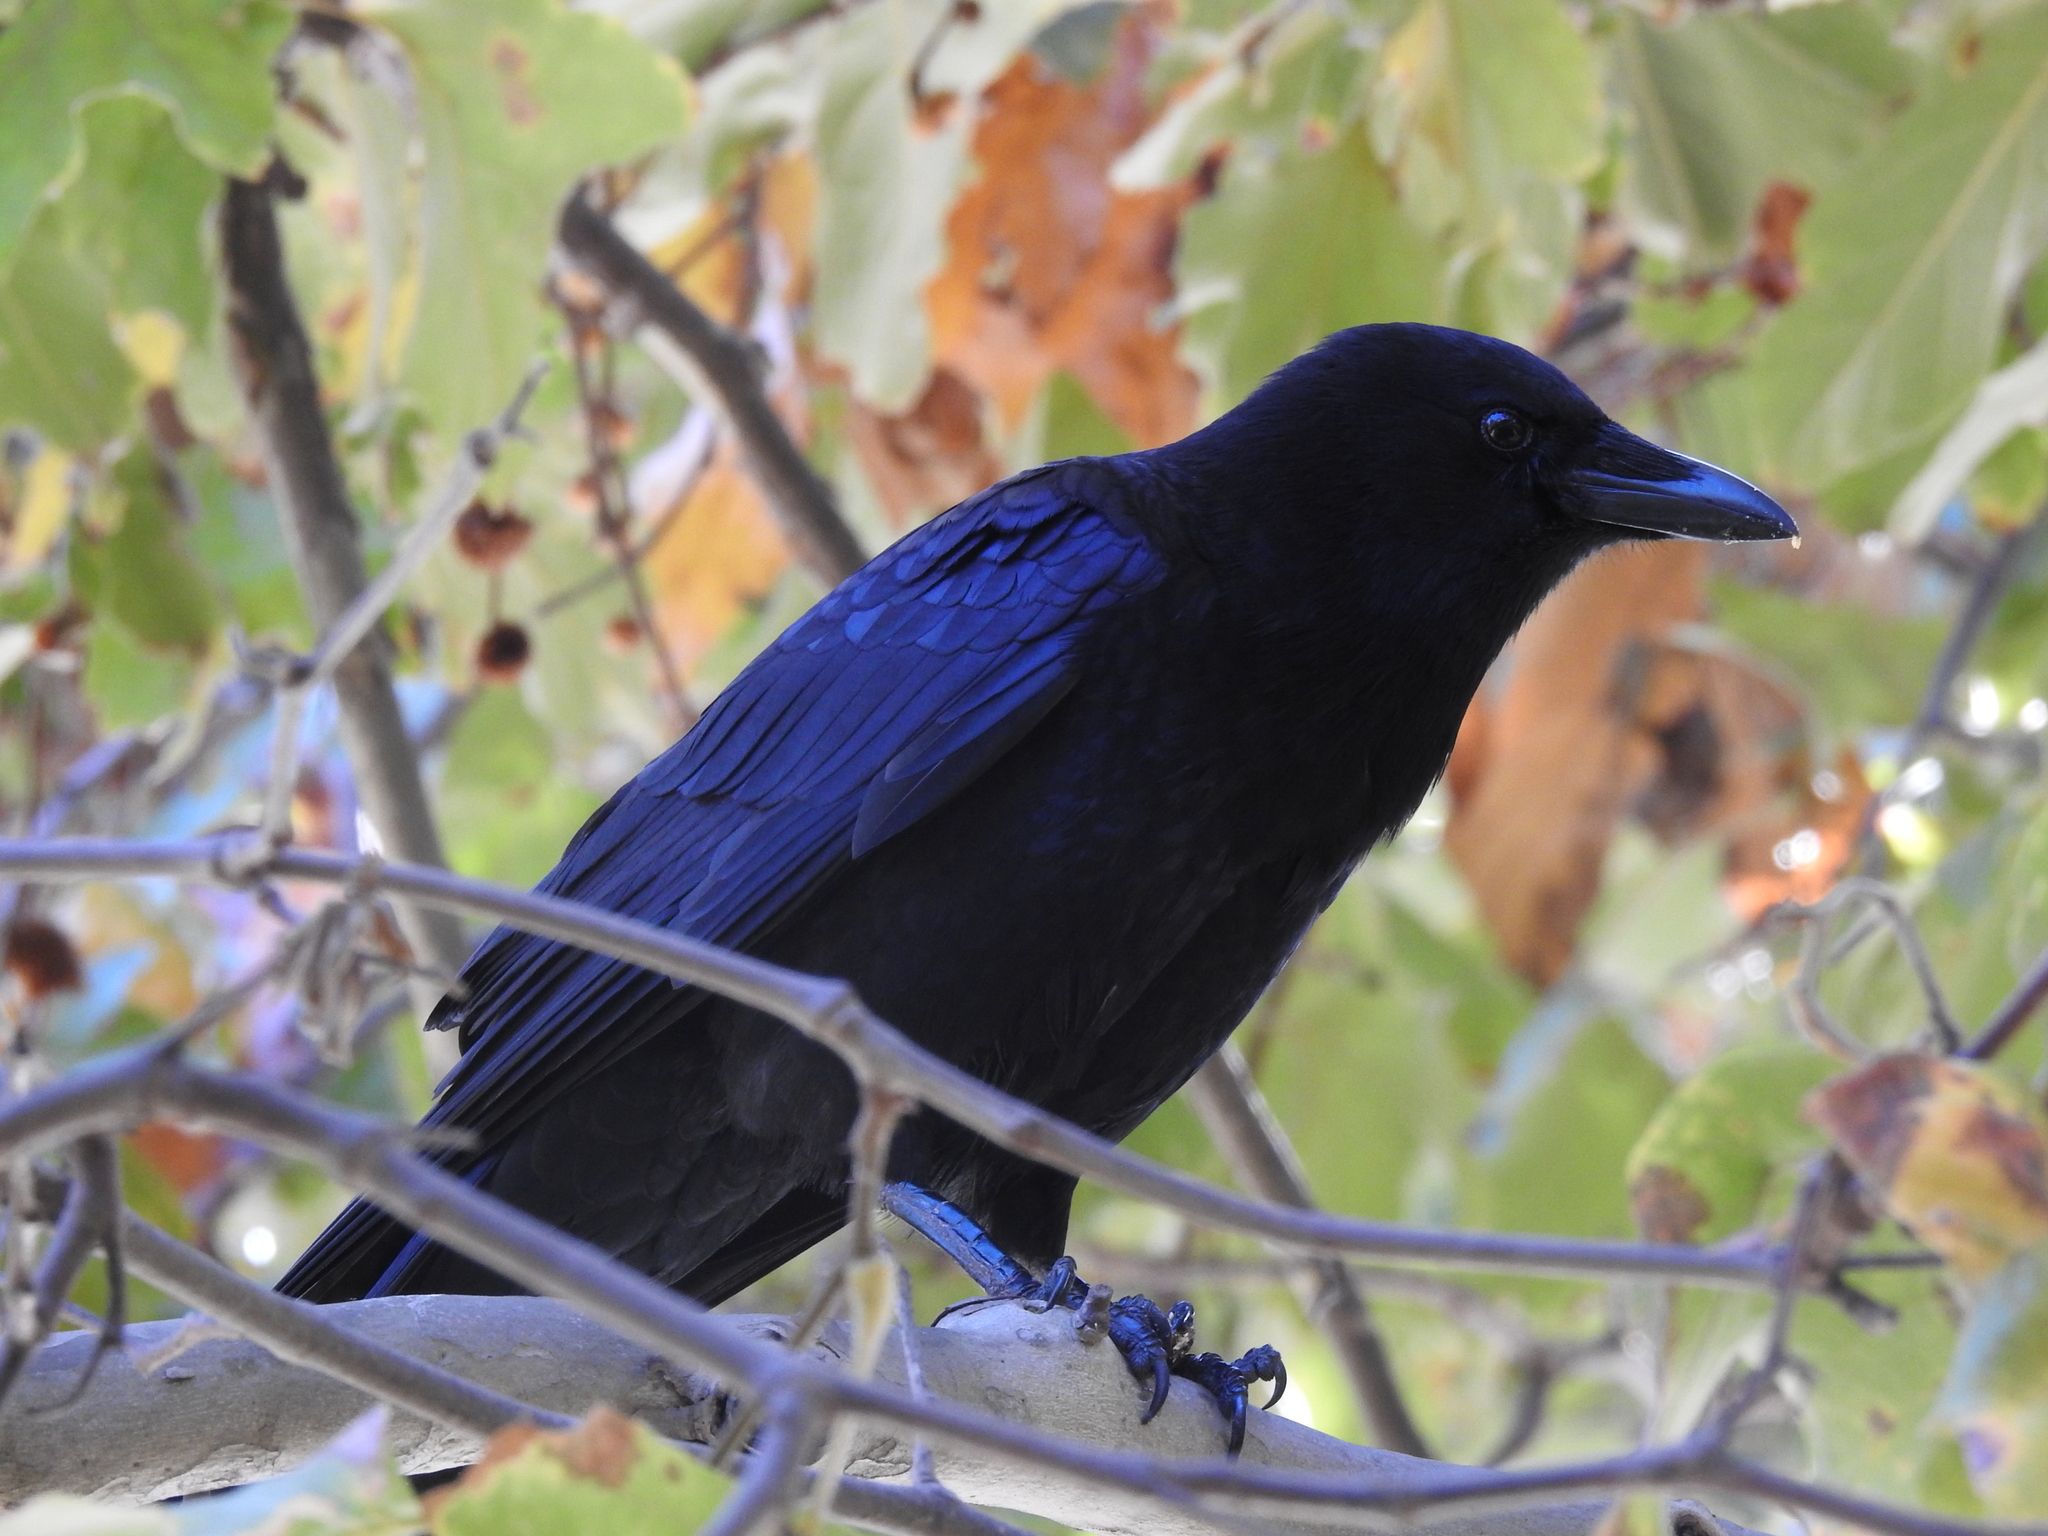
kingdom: Animalia
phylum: Chordata
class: Aves
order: Passeriformes
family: Corvidae
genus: Corvus
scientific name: Corvus brachyrhynchos
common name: American crow
